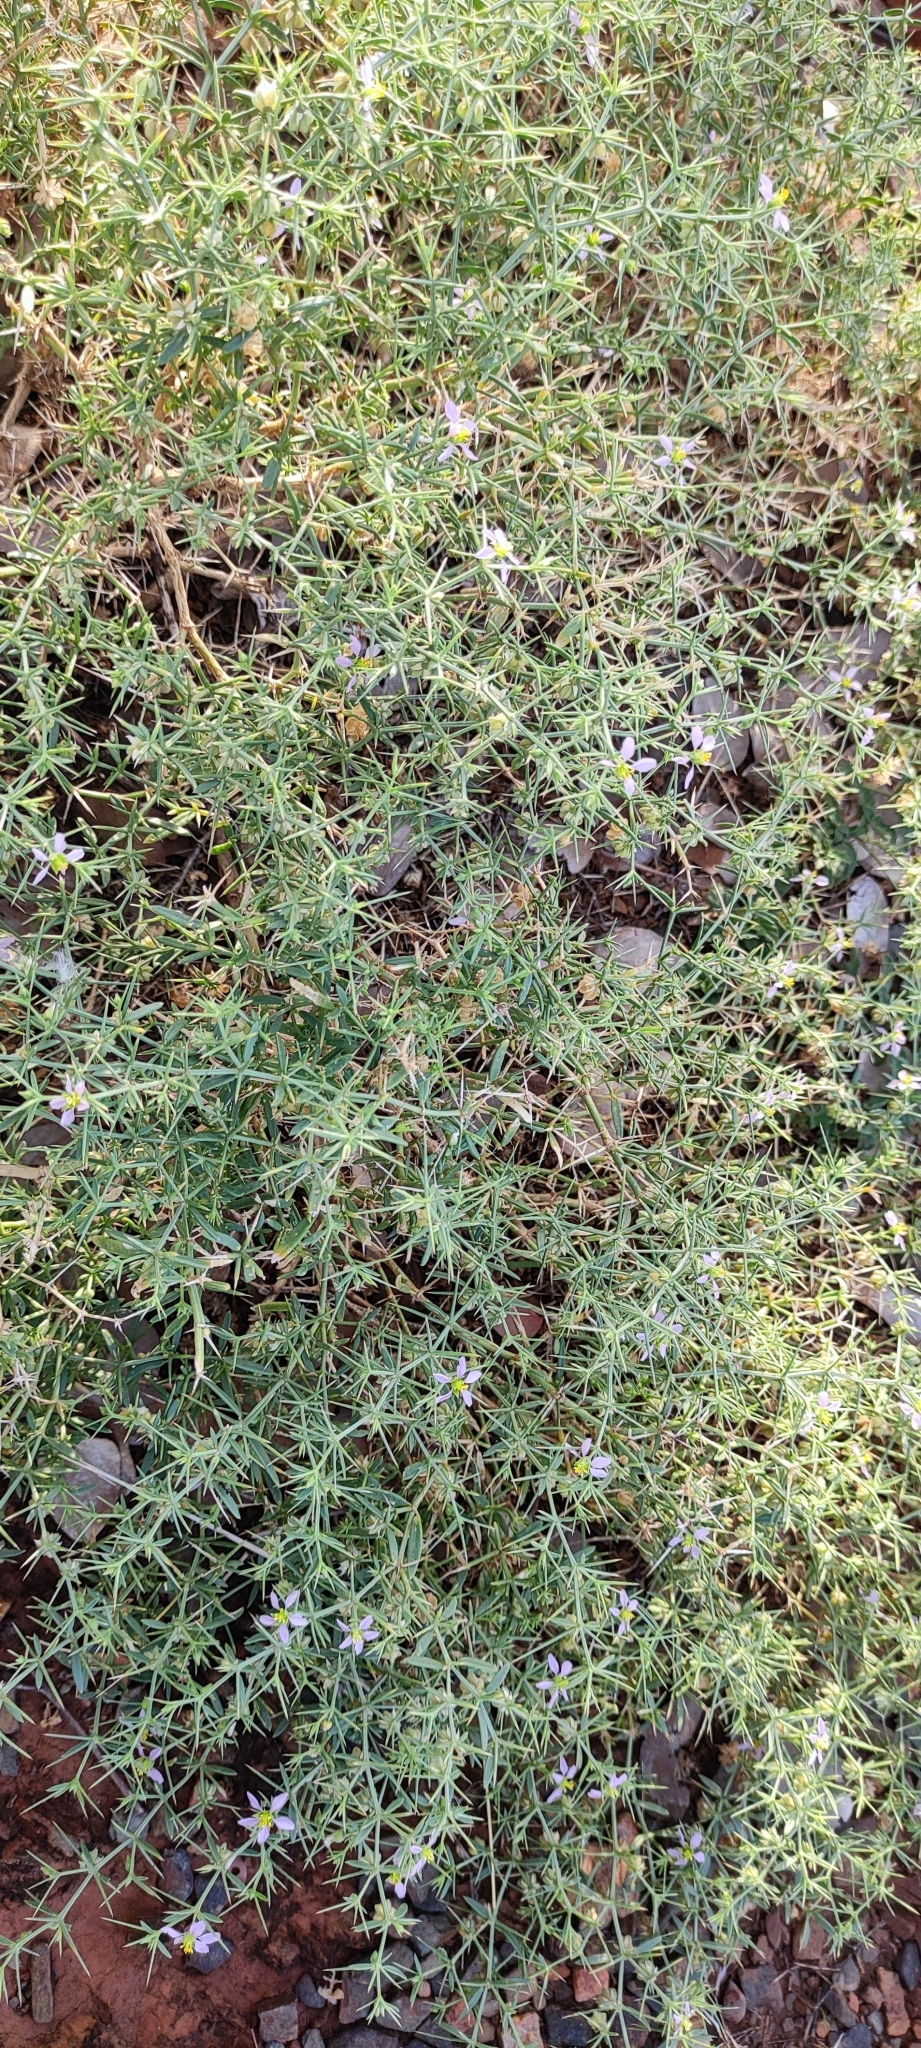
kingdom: Plantae
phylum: Tracheophyta
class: Magnoliopsida
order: Zygophyllales
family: Zygophyllaceae
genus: Fagonia
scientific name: Fagonia indica
